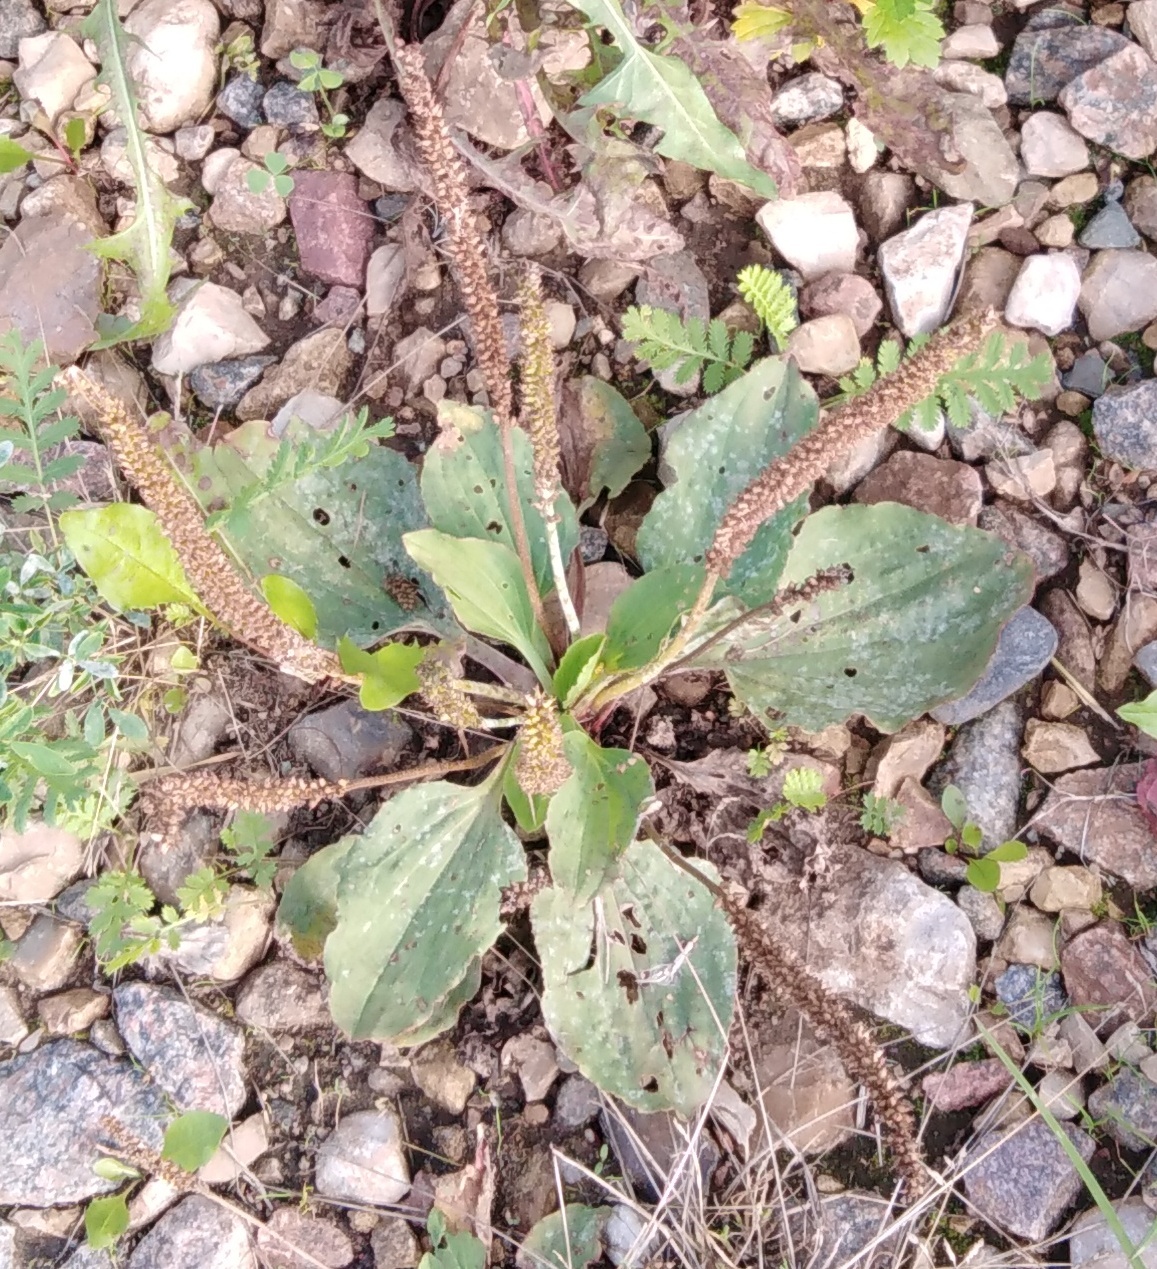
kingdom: Plantae
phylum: Tracheophyta
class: Magnoliopsida
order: Lamiales
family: Plantaginaceae
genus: Plantago
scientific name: Plantago major
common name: Common plantain
